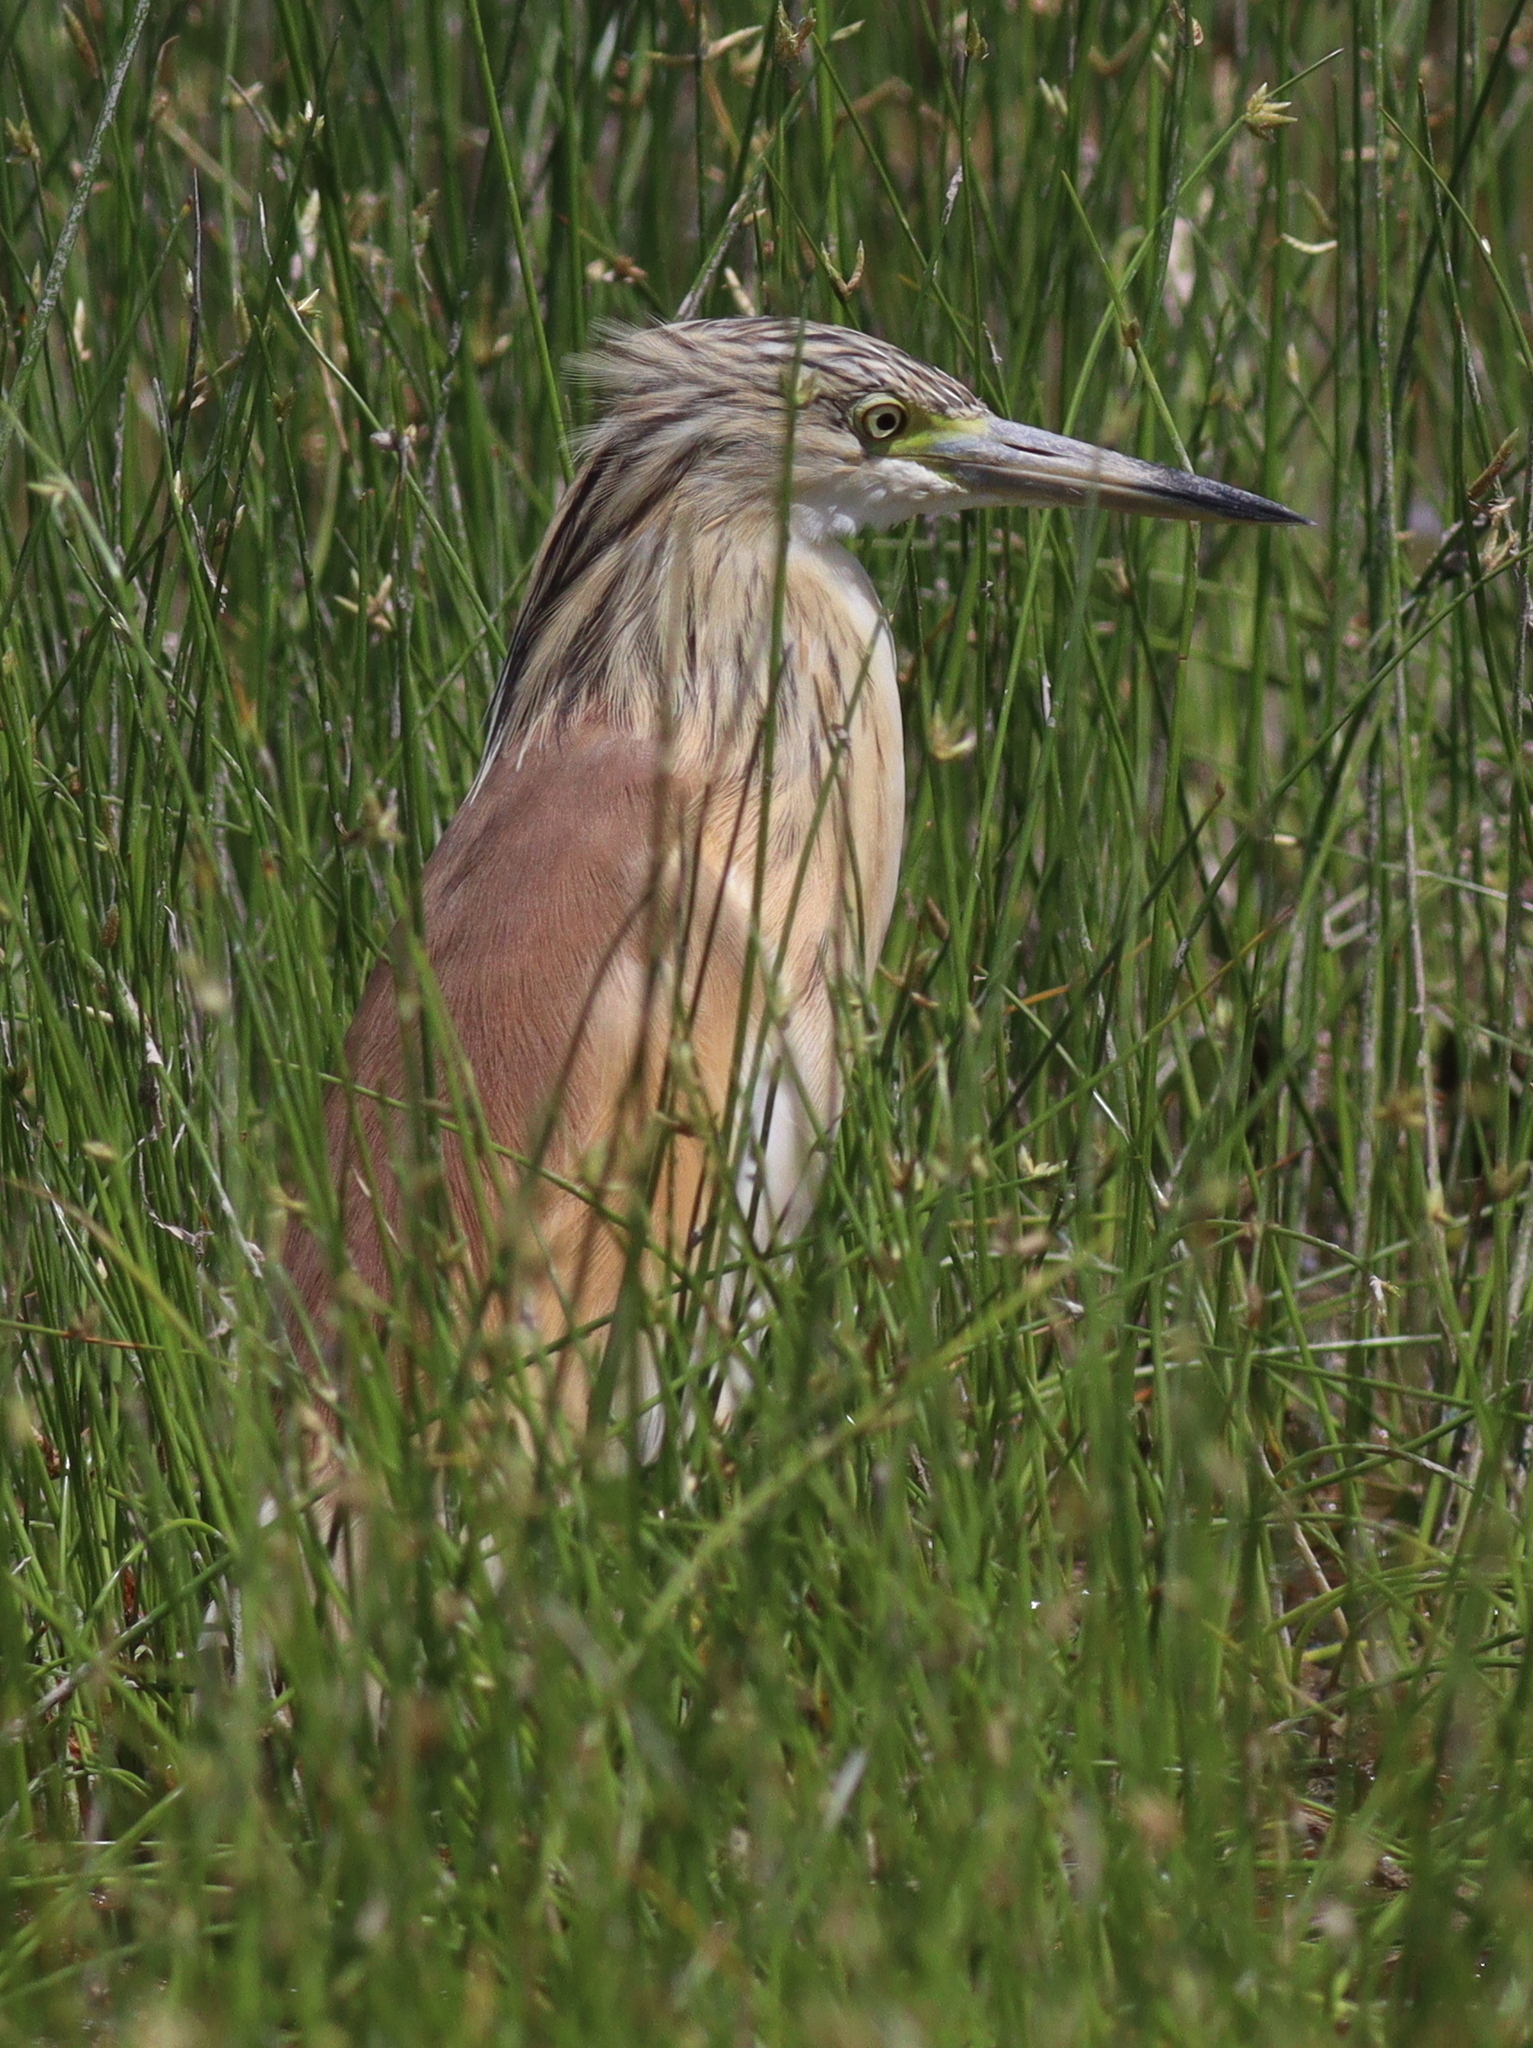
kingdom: Animalia
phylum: Chordata
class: Aves
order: Pelecaniformes
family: Ardeidae
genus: Ardeola
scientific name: Ardeola ralloides
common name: Squacco heron
